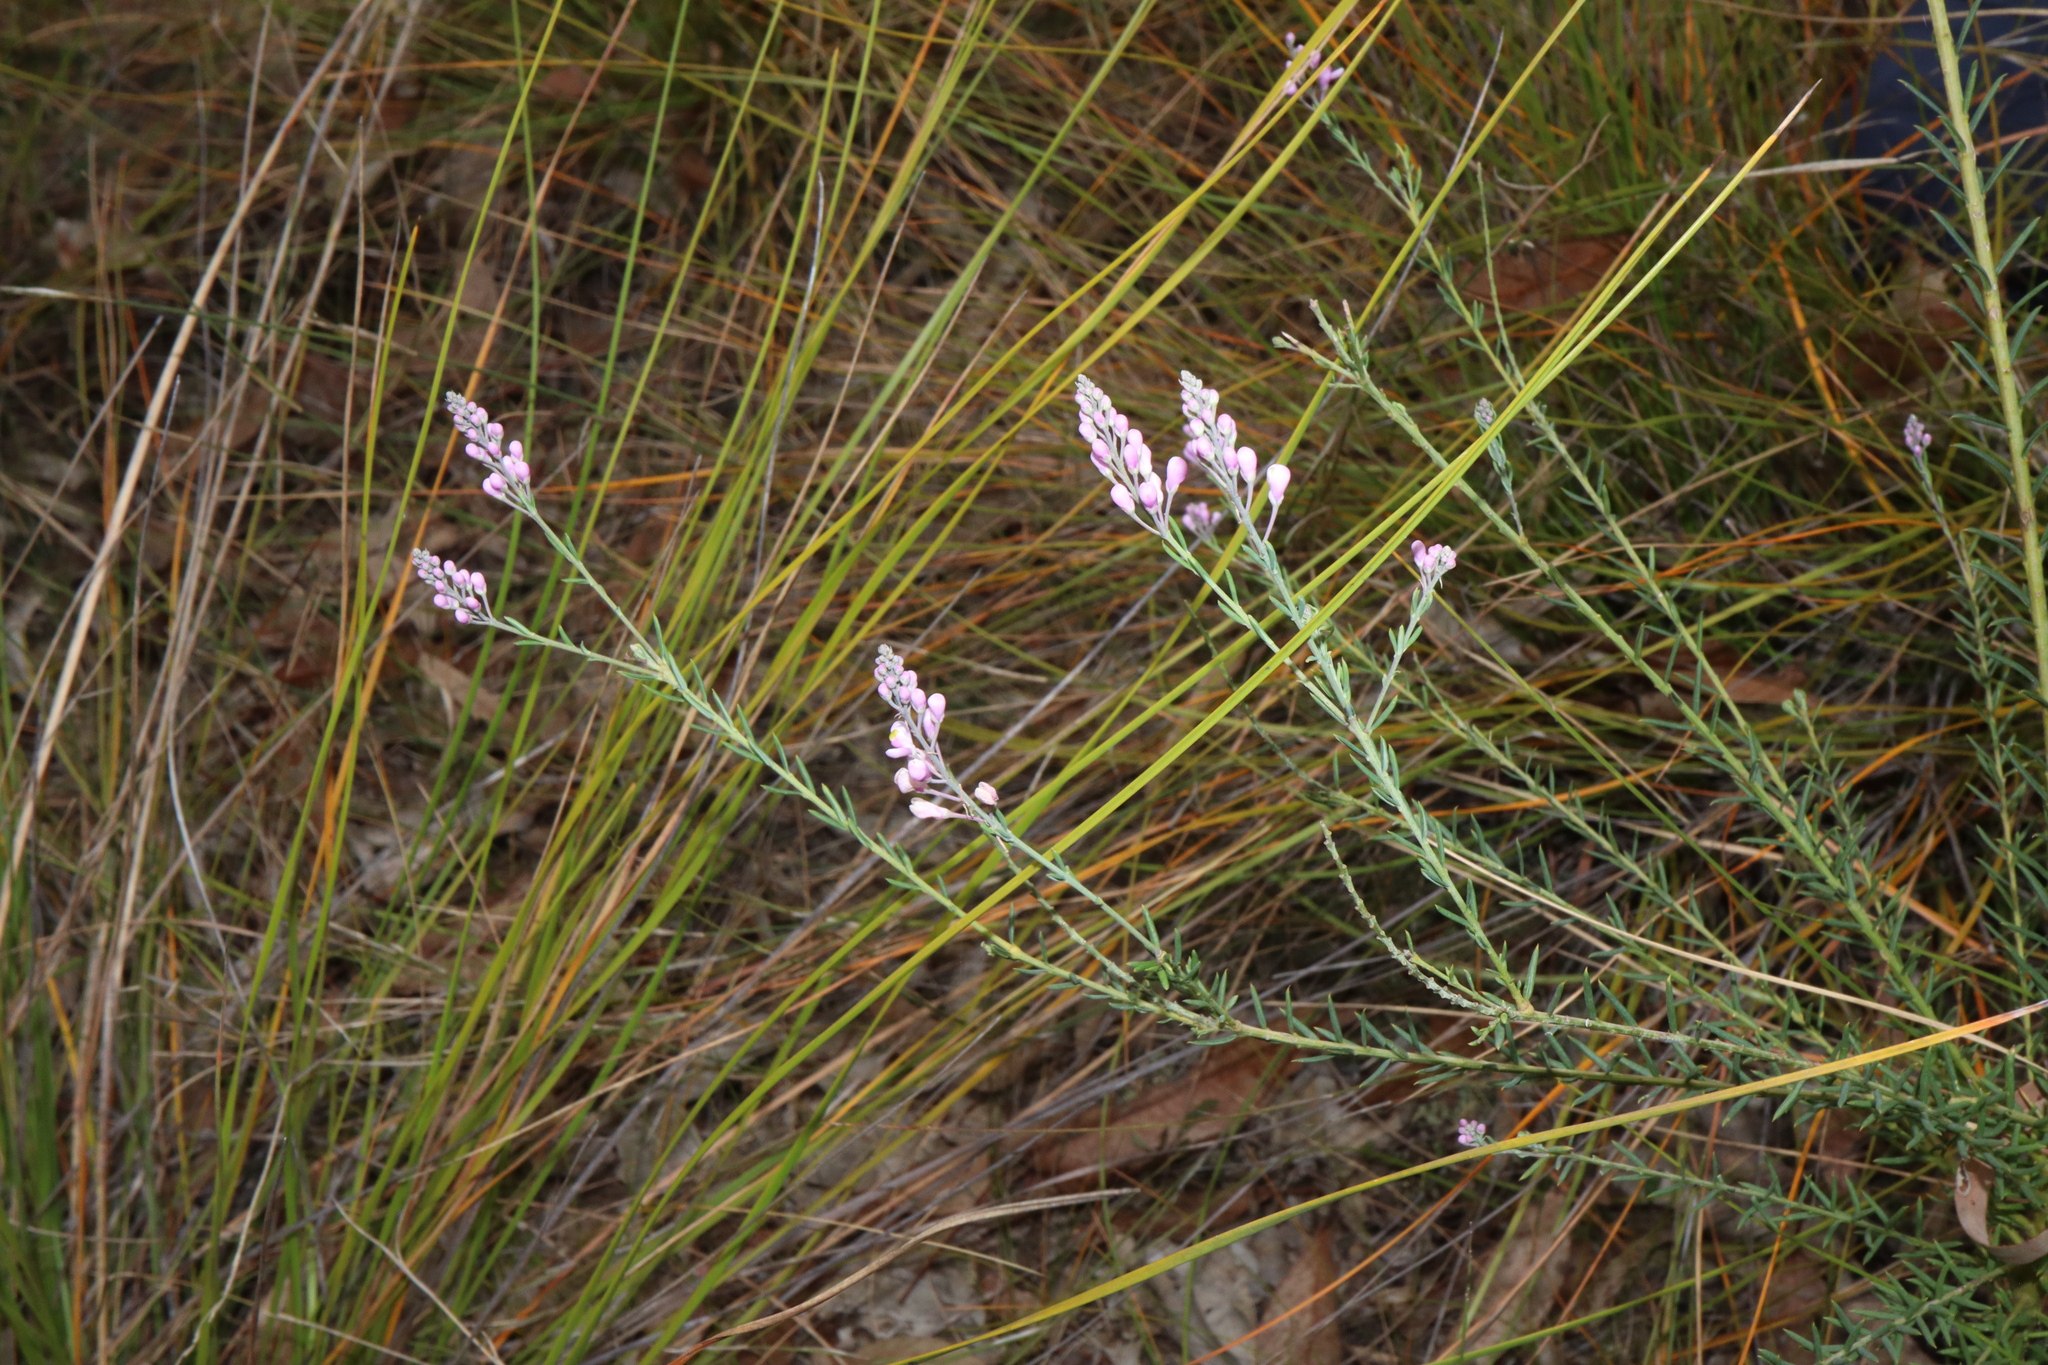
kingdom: Plantae
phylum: Tracheophyta
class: Magnoliopsida
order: Fabales
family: Polygalaceae
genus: Comesperma
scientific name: Comesperma ericinum
